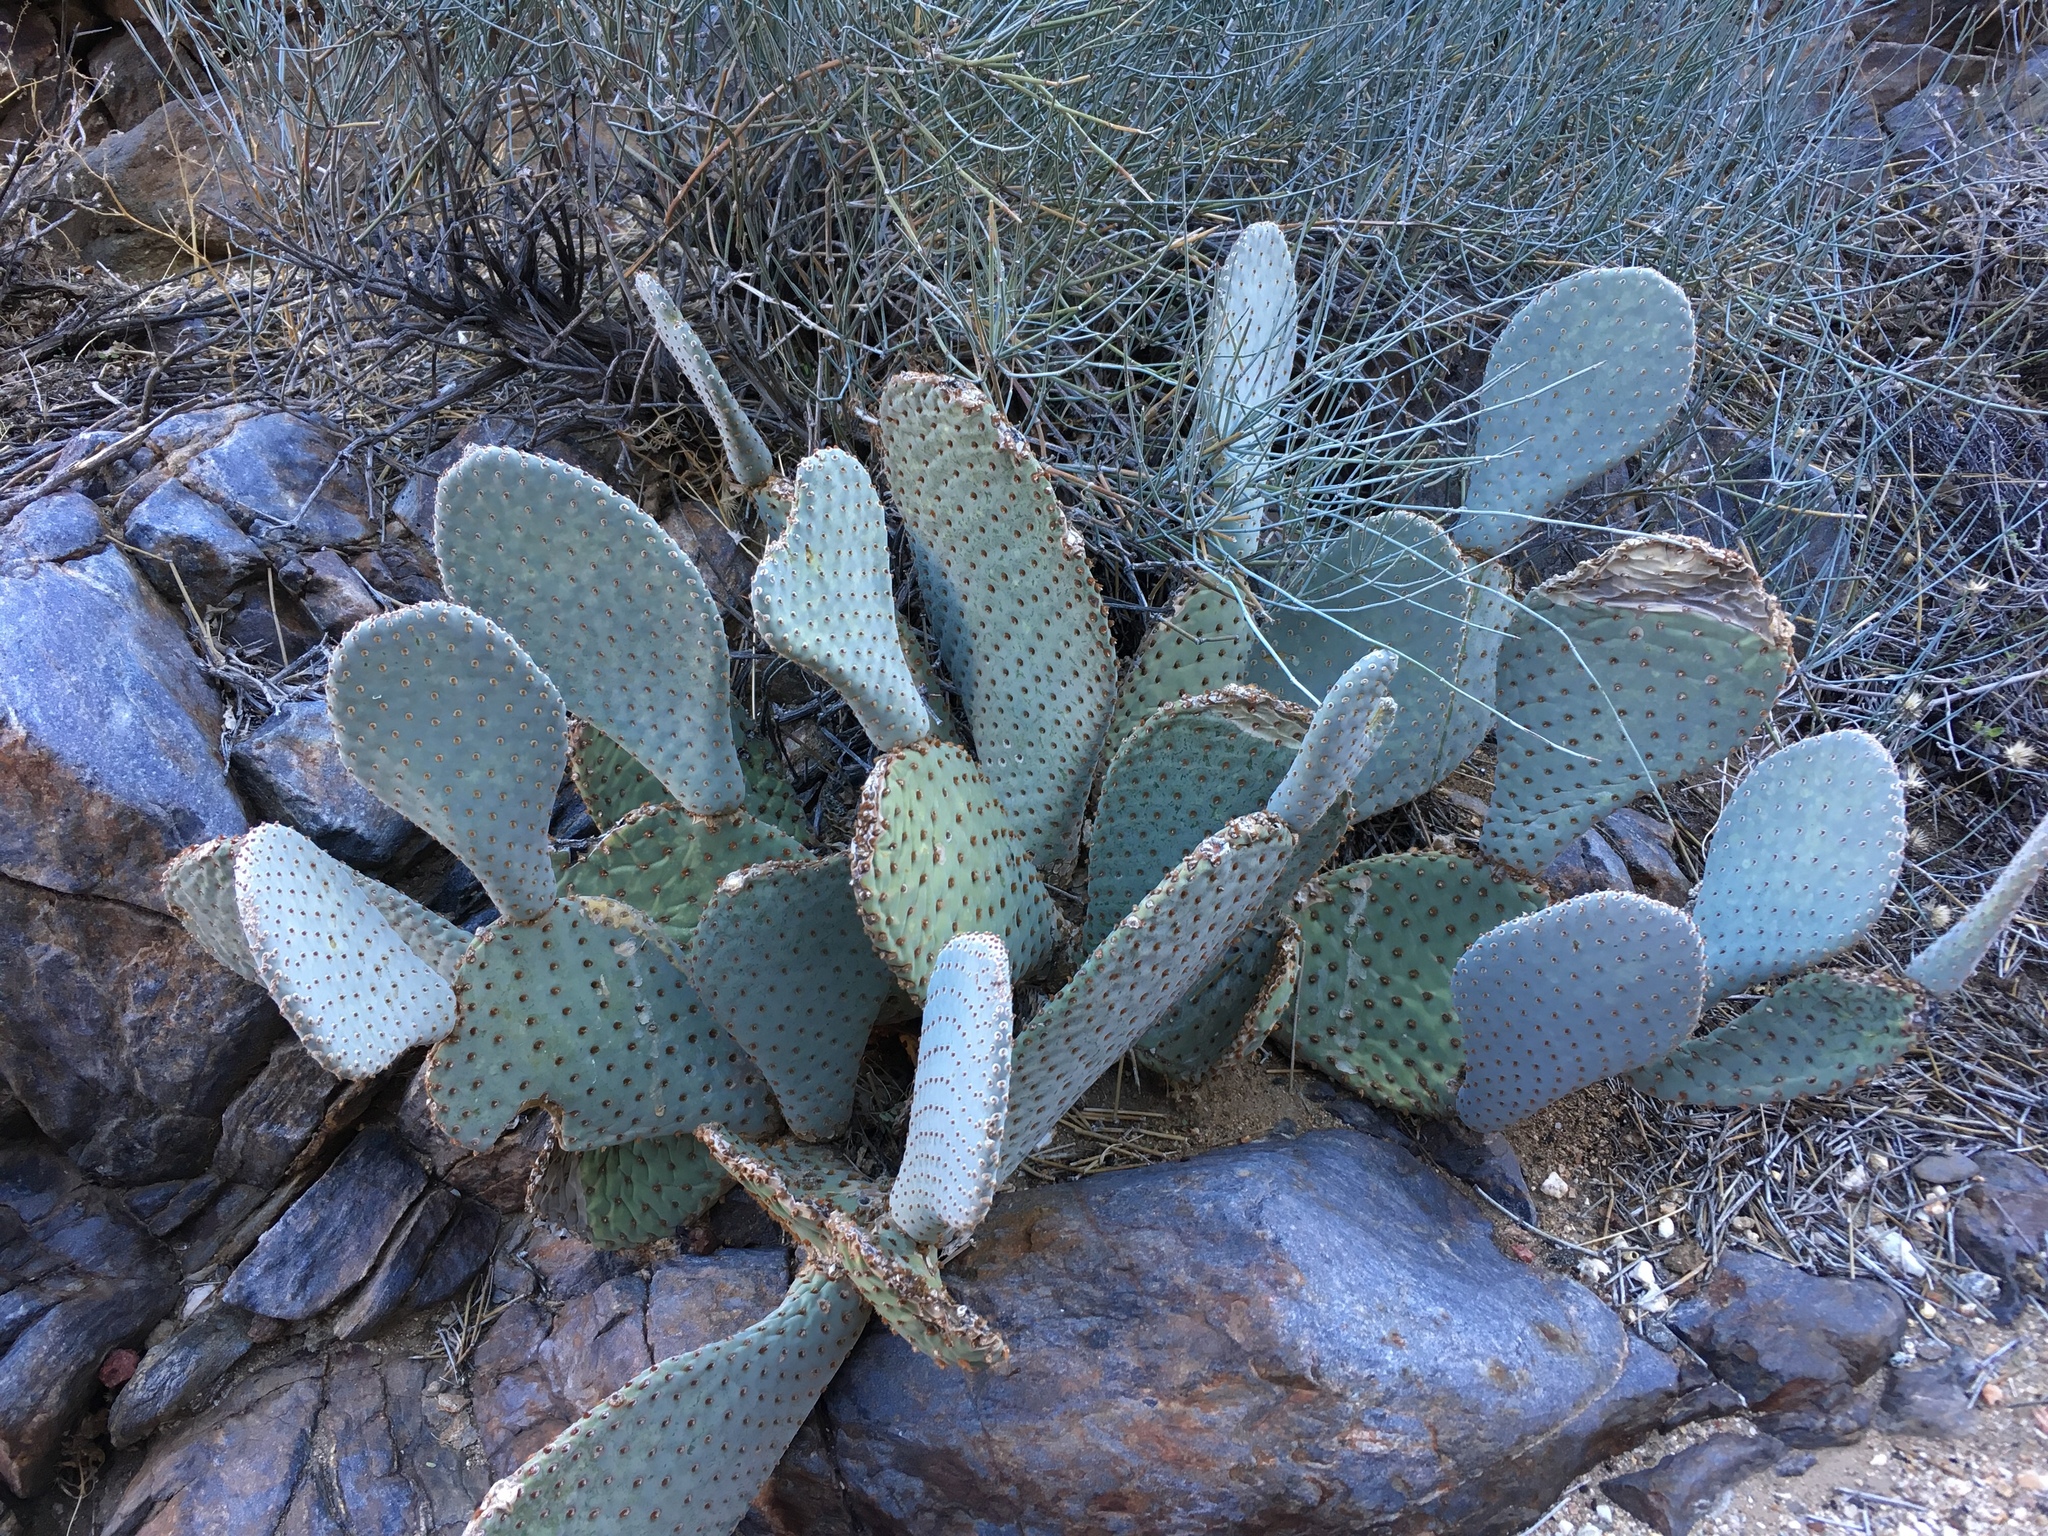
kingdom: Plantae
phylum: Tracheophyta
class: Magnoliopsida
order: Caryophyllales
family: Cactaceae
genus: Opuntia
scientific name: Opuntia basilaris
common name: Beavertail prickly-pear
